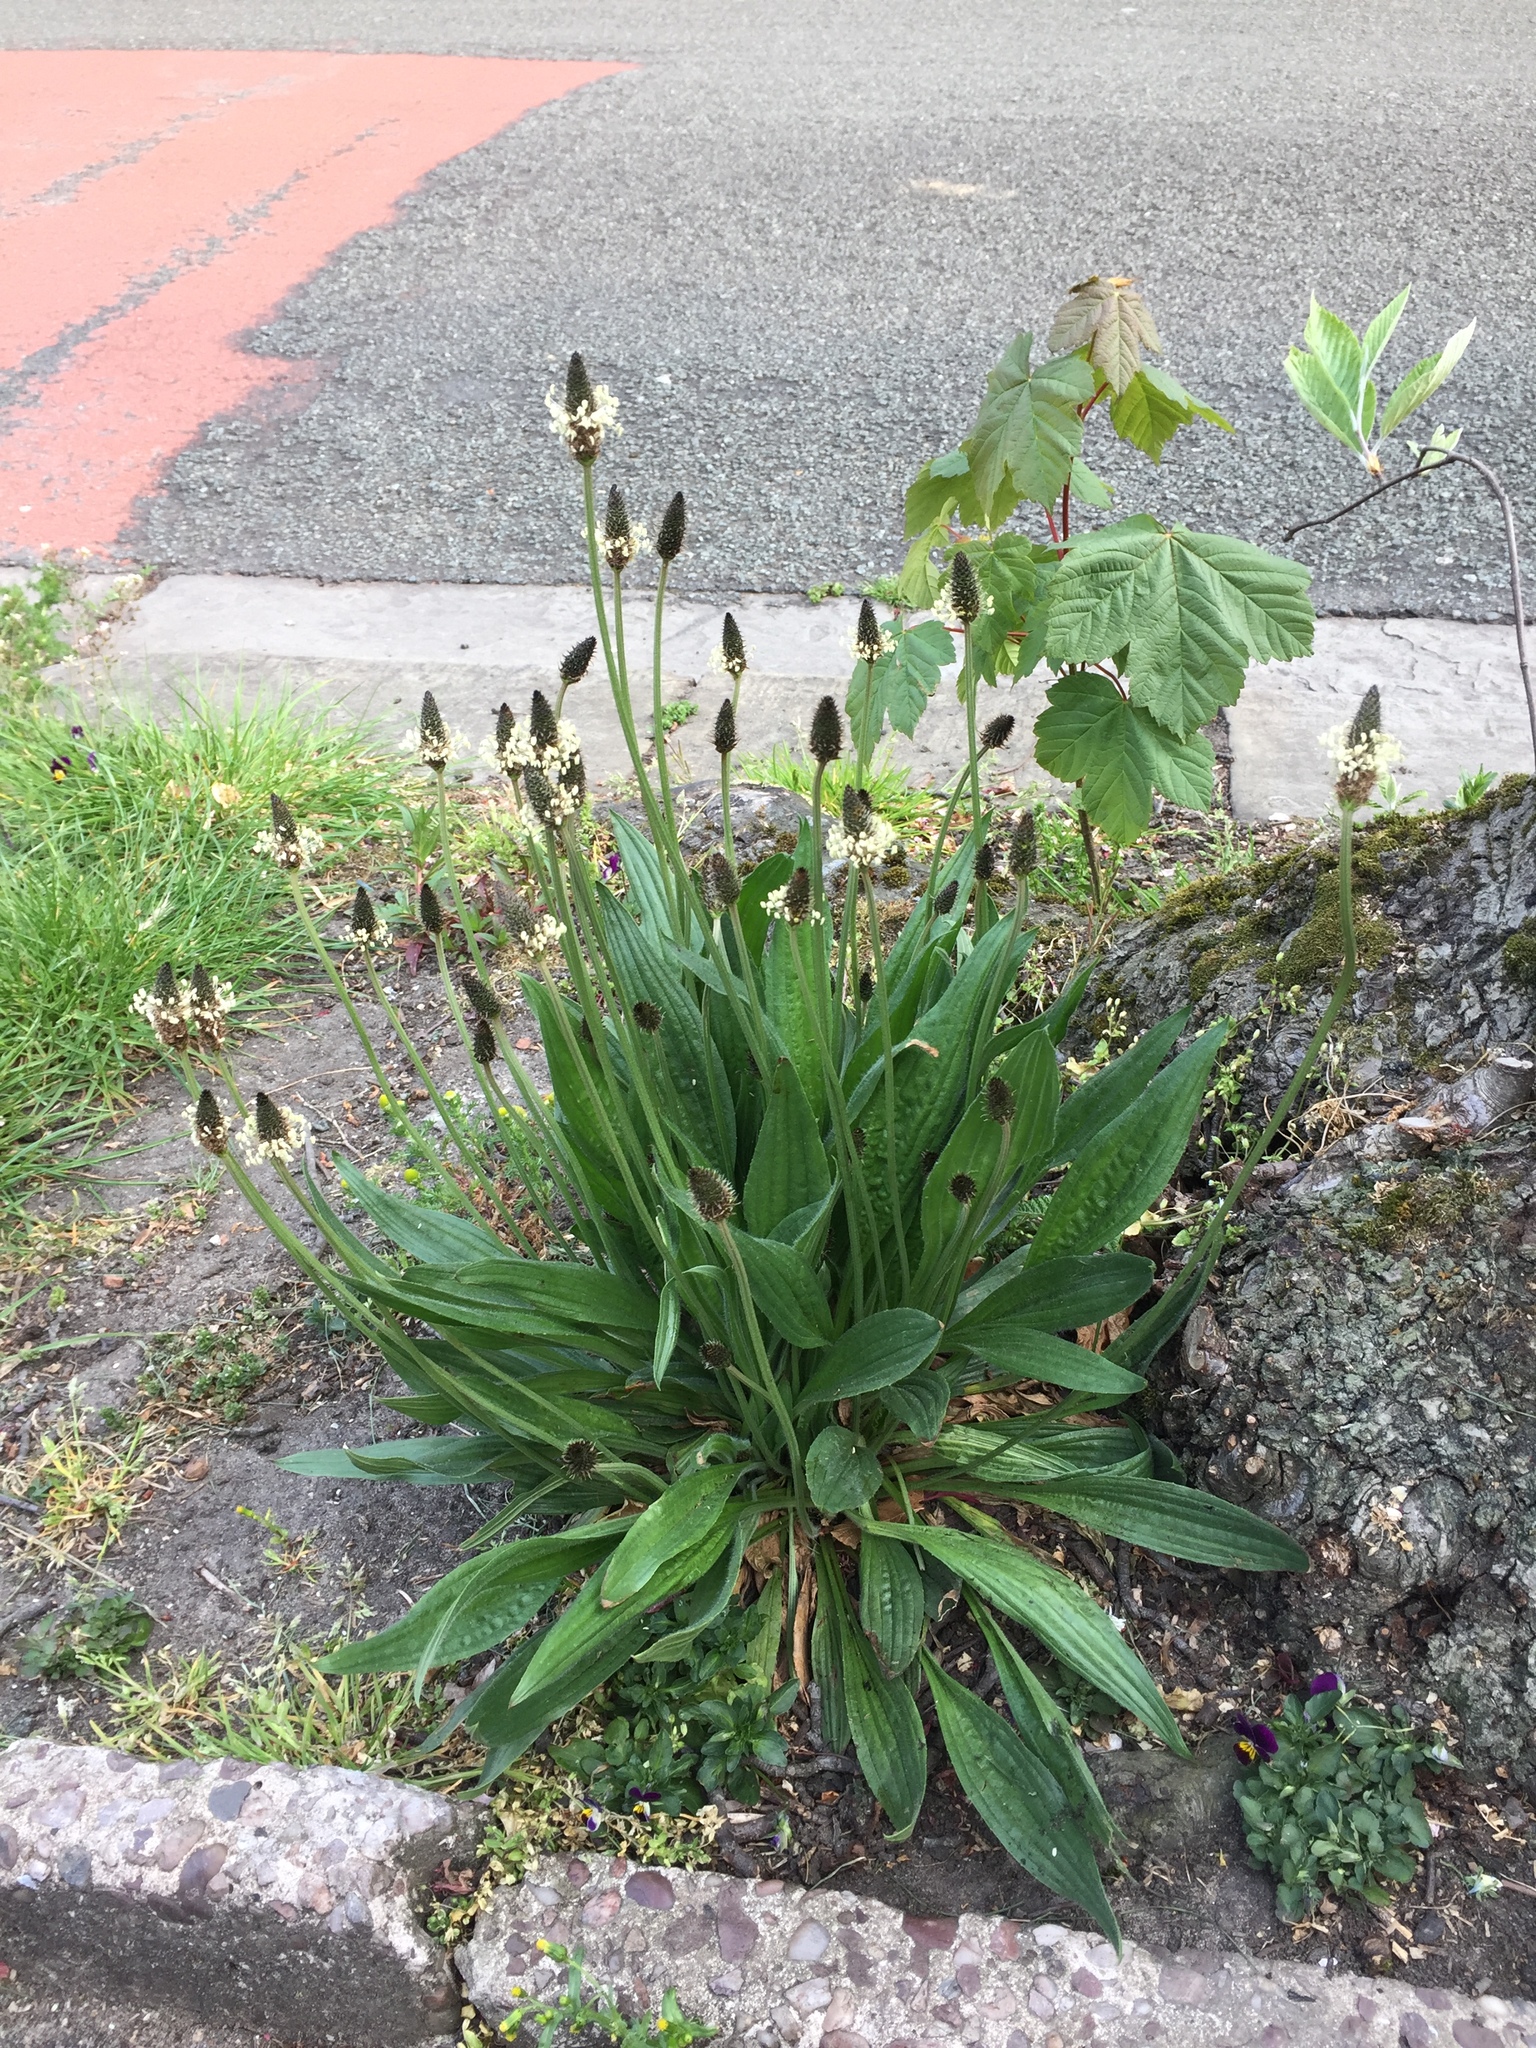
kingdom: Plantae
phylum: Tracheophyta
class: Magnoliopsida
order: Lamiales
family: Plantaginaceae
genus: Plantago
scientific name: Plantago lanceolata
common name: Ribwort plantain
